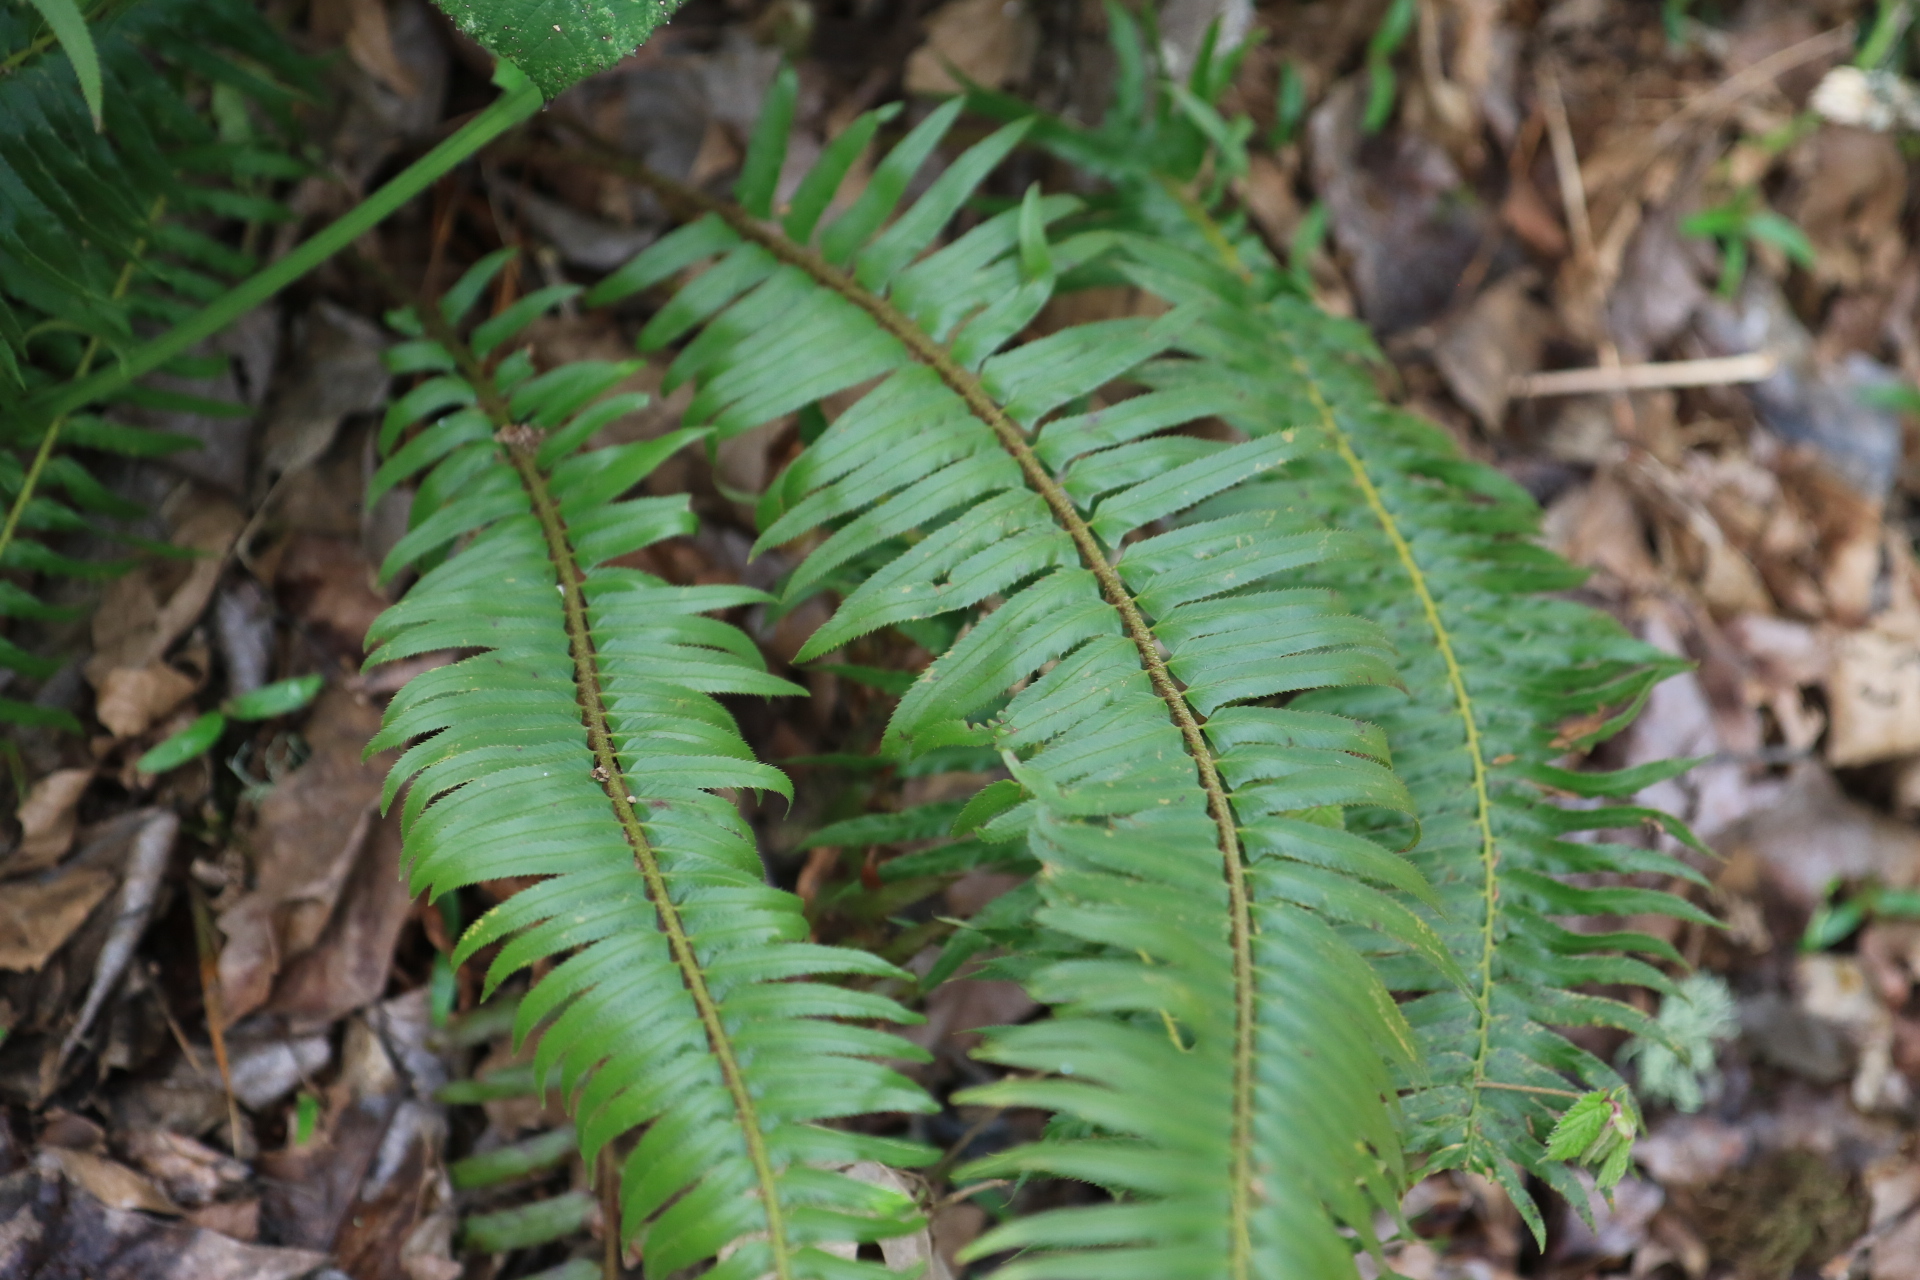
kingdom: Plantae
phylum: Tracheophyta
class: Polypodiopsida
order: Polypodiales
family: Dryopteridaceae
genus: Polystichum
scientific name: Polystichum munitum
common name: Western sword-fern
